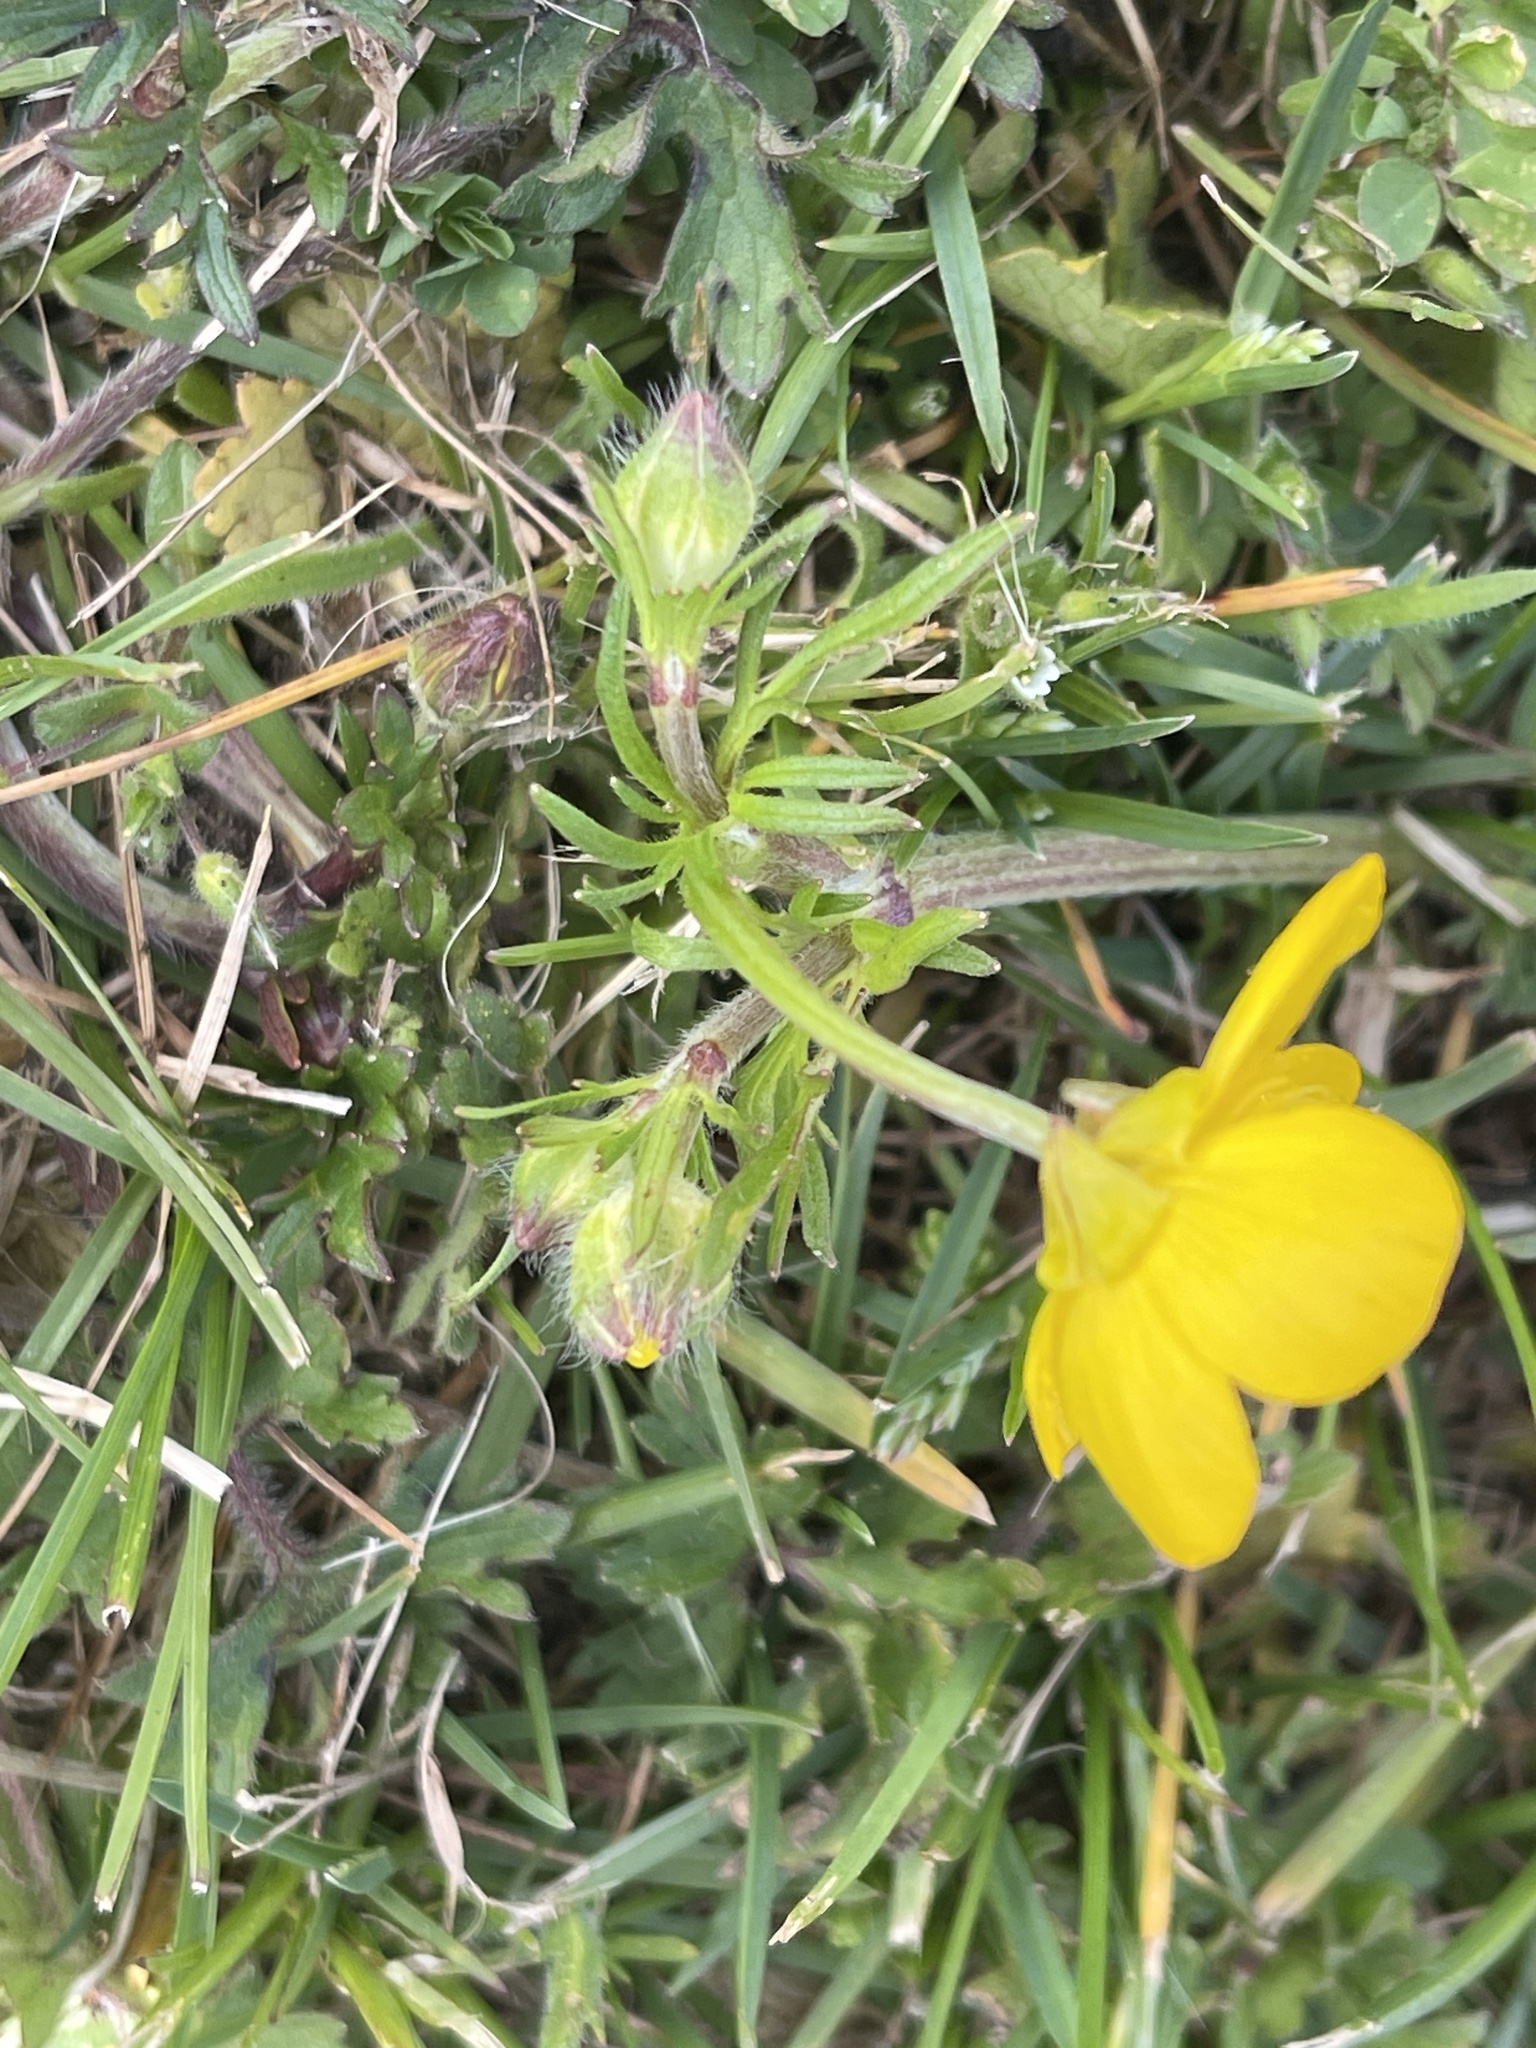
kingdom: Plantae
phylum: Tracheophyta
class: Magnoliopsida
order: Ranunculales
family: Ranunculaceae
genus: Ranunculus
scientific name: Ranunculus bulbosus
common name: Bulbous buttercup
